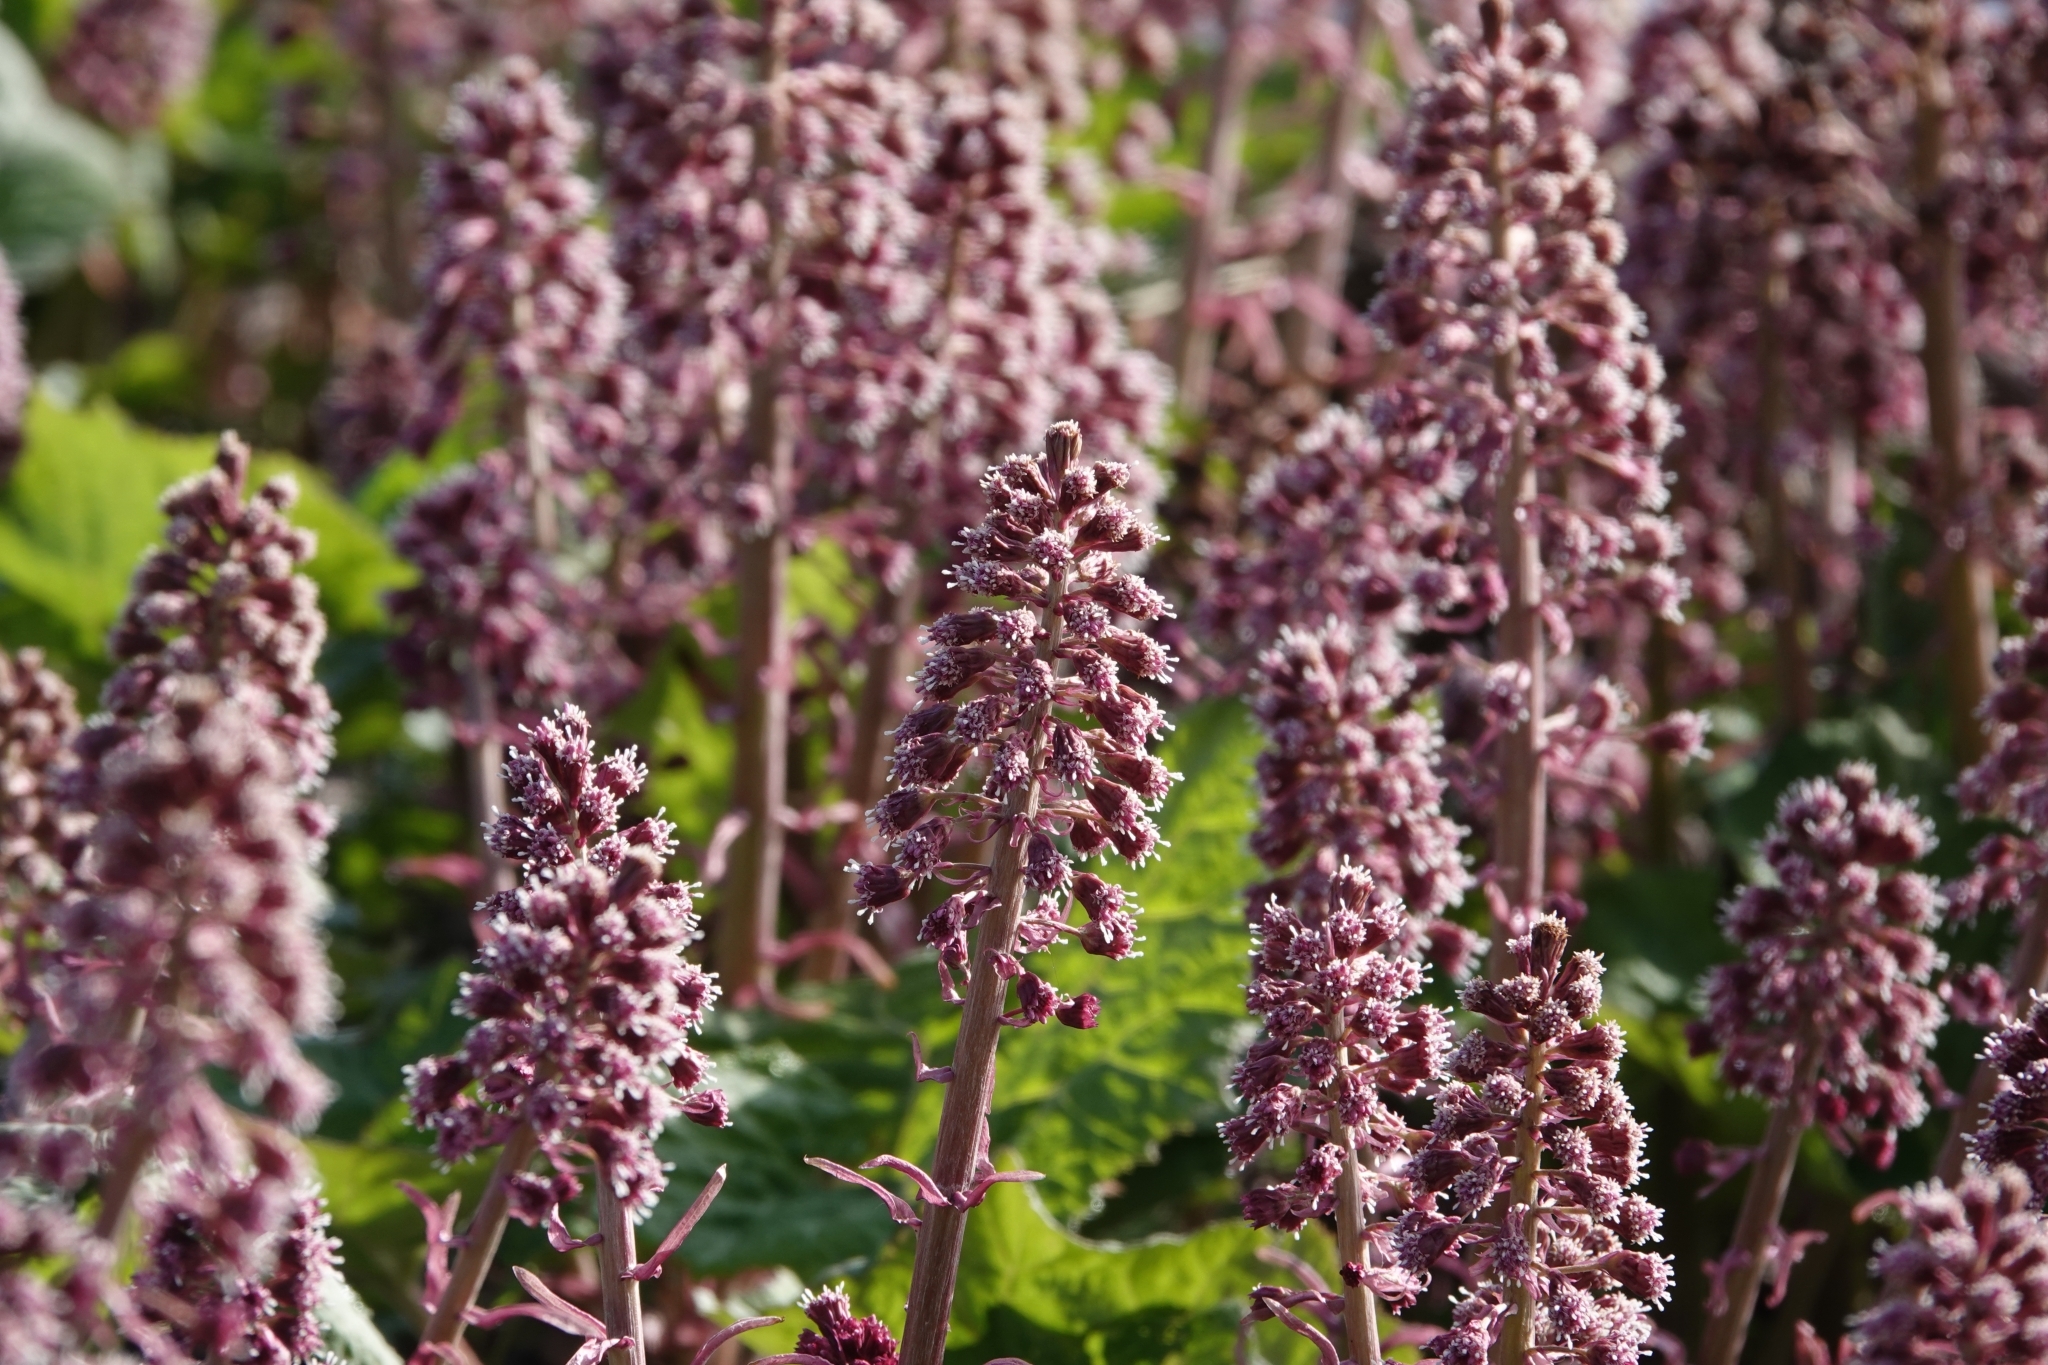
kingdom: Plantae
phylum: Tracheophyta
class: Magnoliopsida
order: Asterales
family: Asteraceae
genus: Petasites
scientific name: Petasites hybridus
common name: Butterbur
